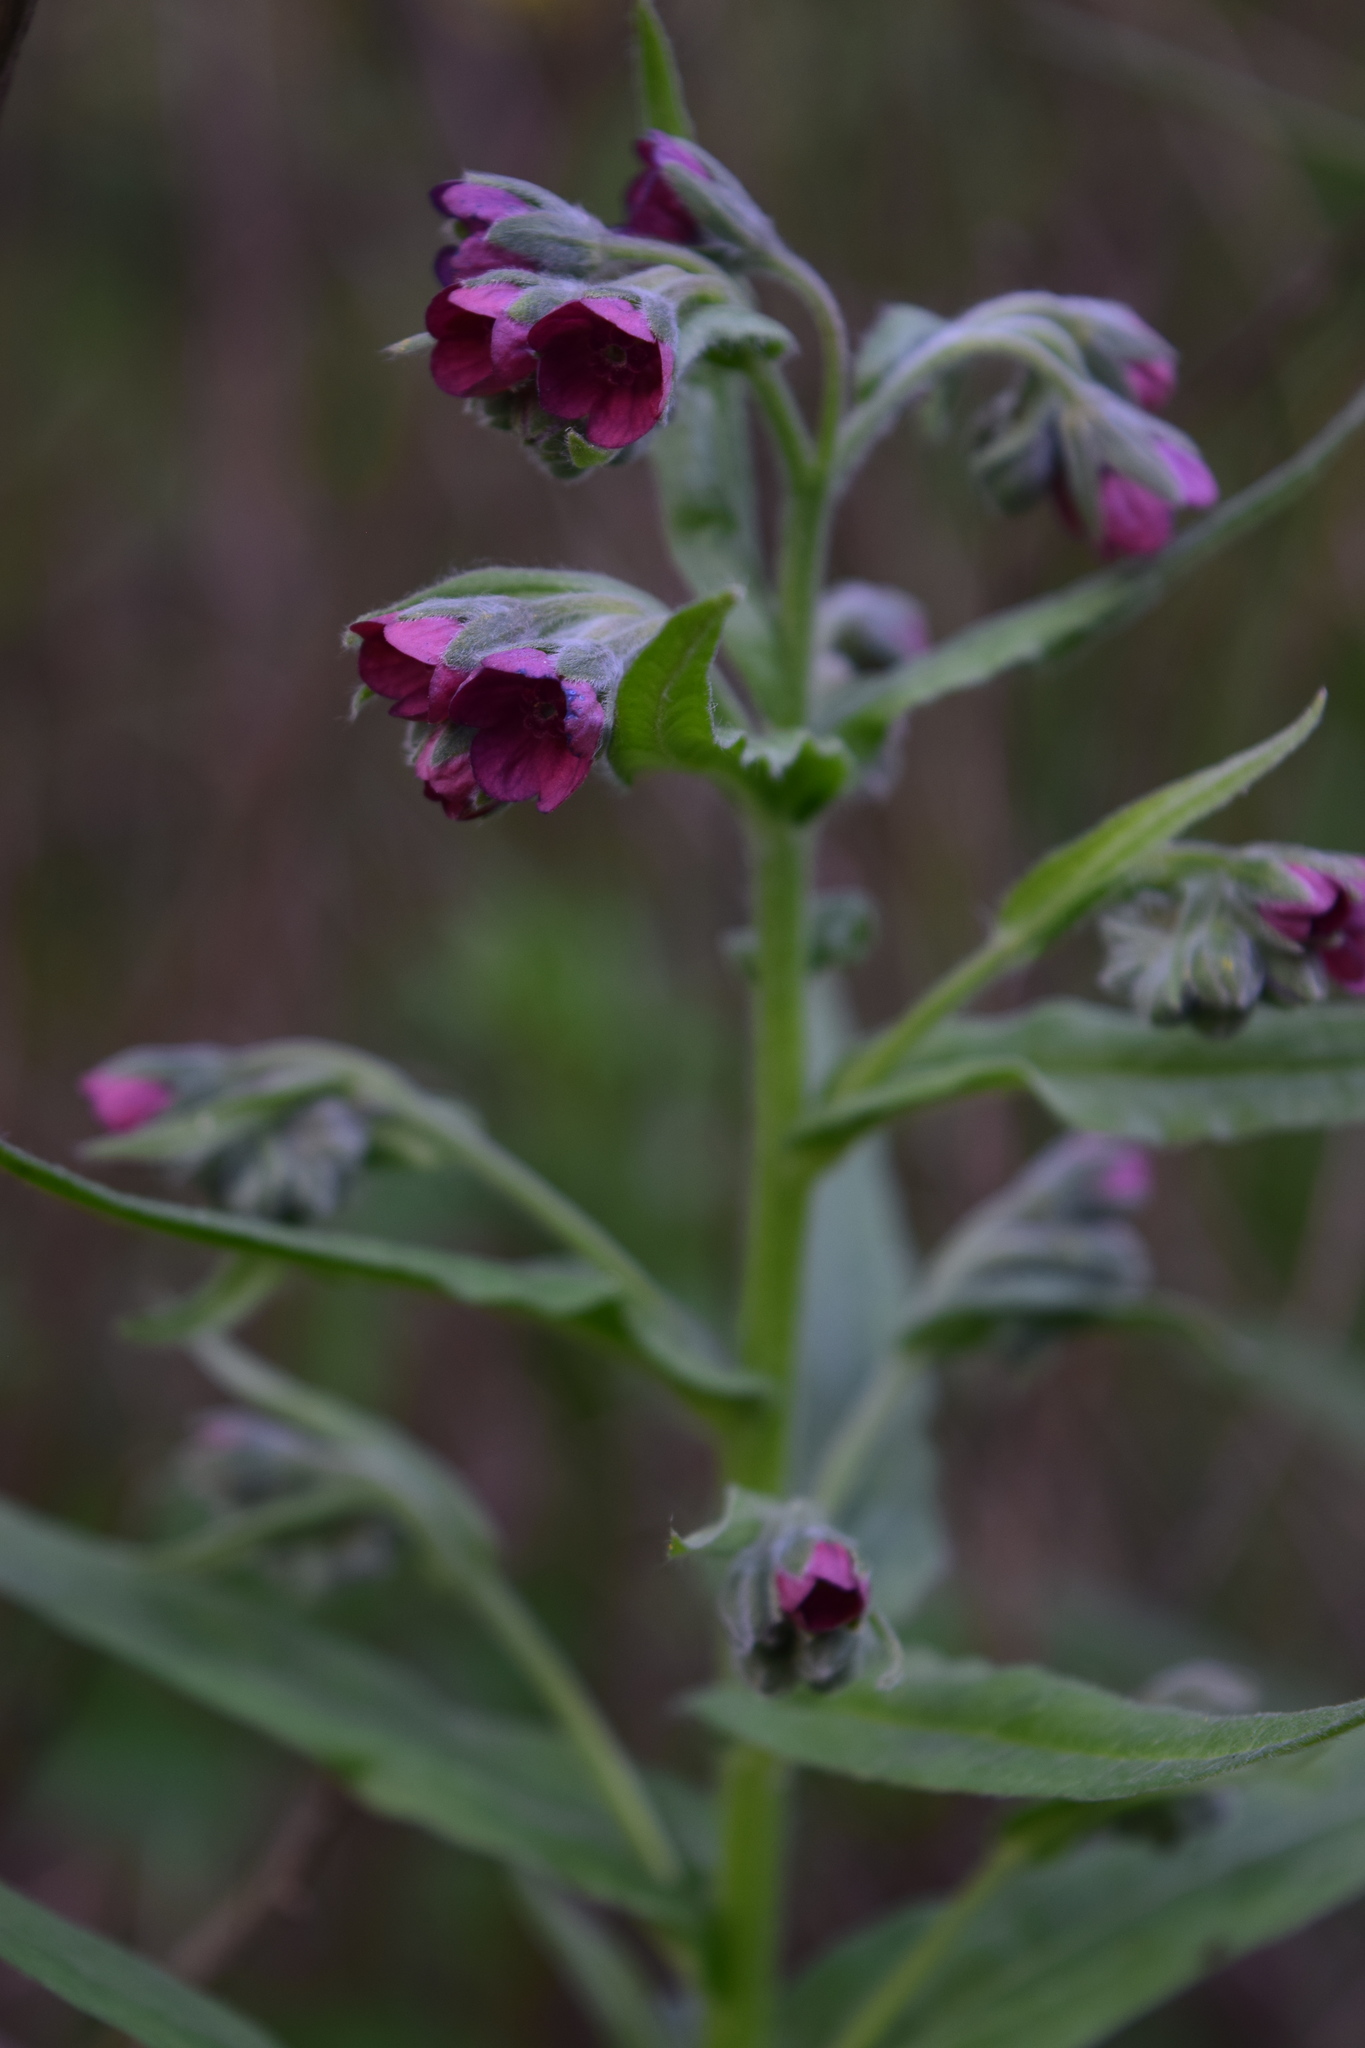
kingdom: Plantae
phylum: Tracheophyta
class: Magnoliopsida
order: Boraginales
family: Boraginaceae
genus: Cynoglossum
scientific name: Cynoglossum officinale
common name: Hound's-tongue
